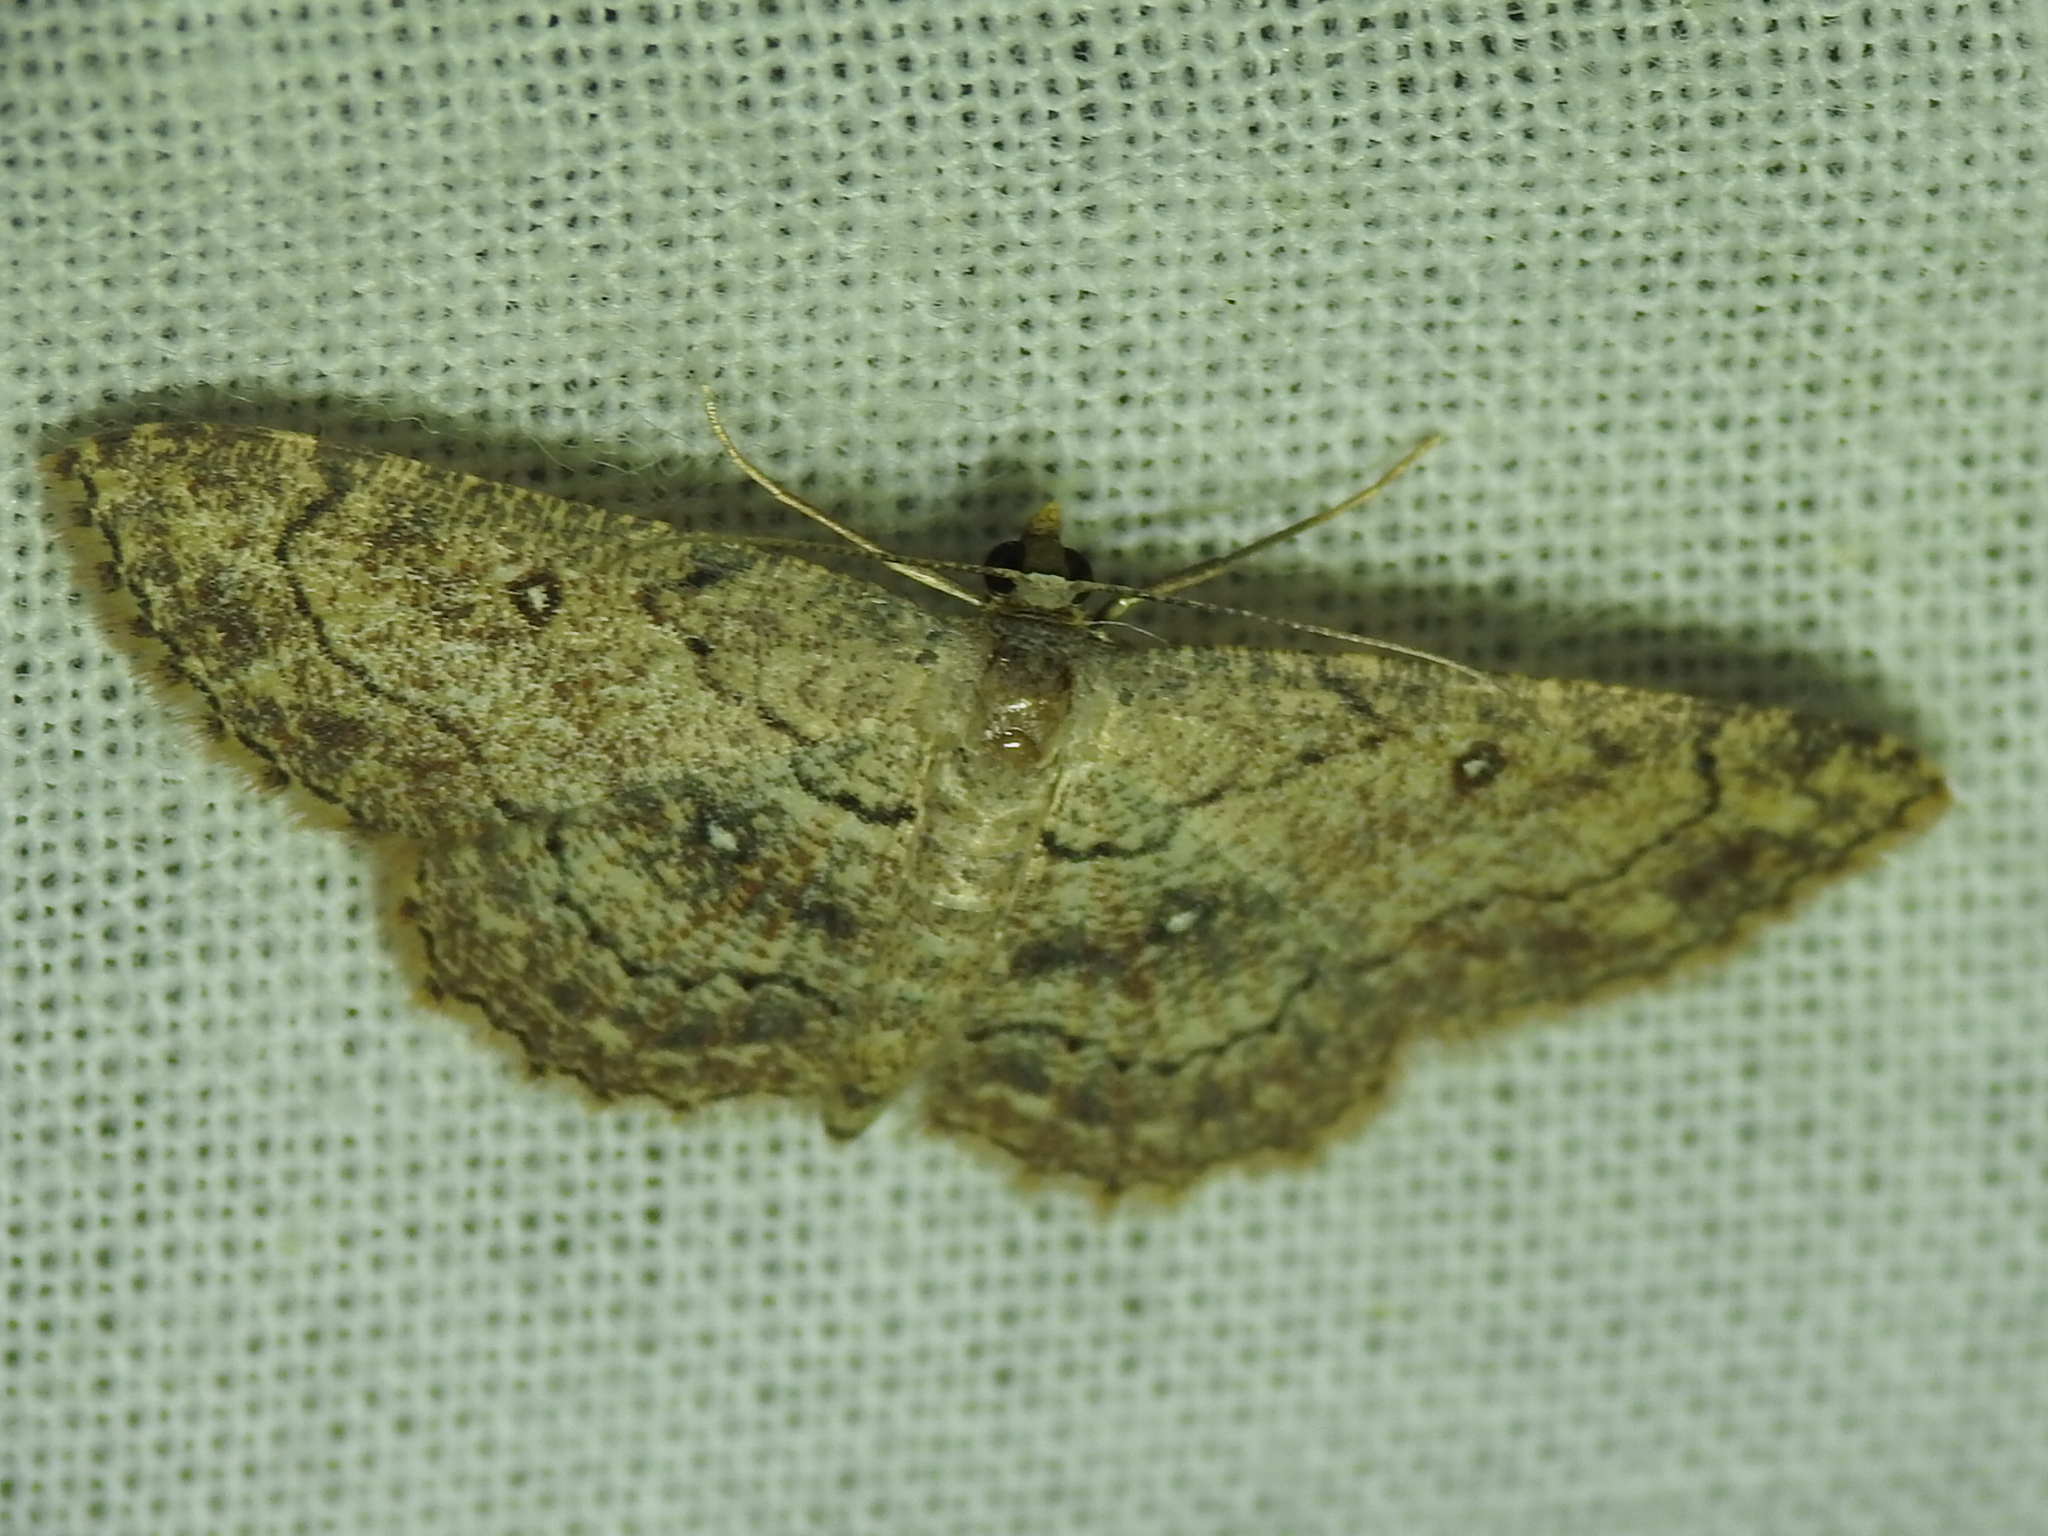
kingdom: Animalia
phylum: Arthropoda
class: Insecta
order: Lepidoptera
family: Geometridae
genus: Cyclophora
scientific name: Cyclophora nanaria
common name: Cankerworm
